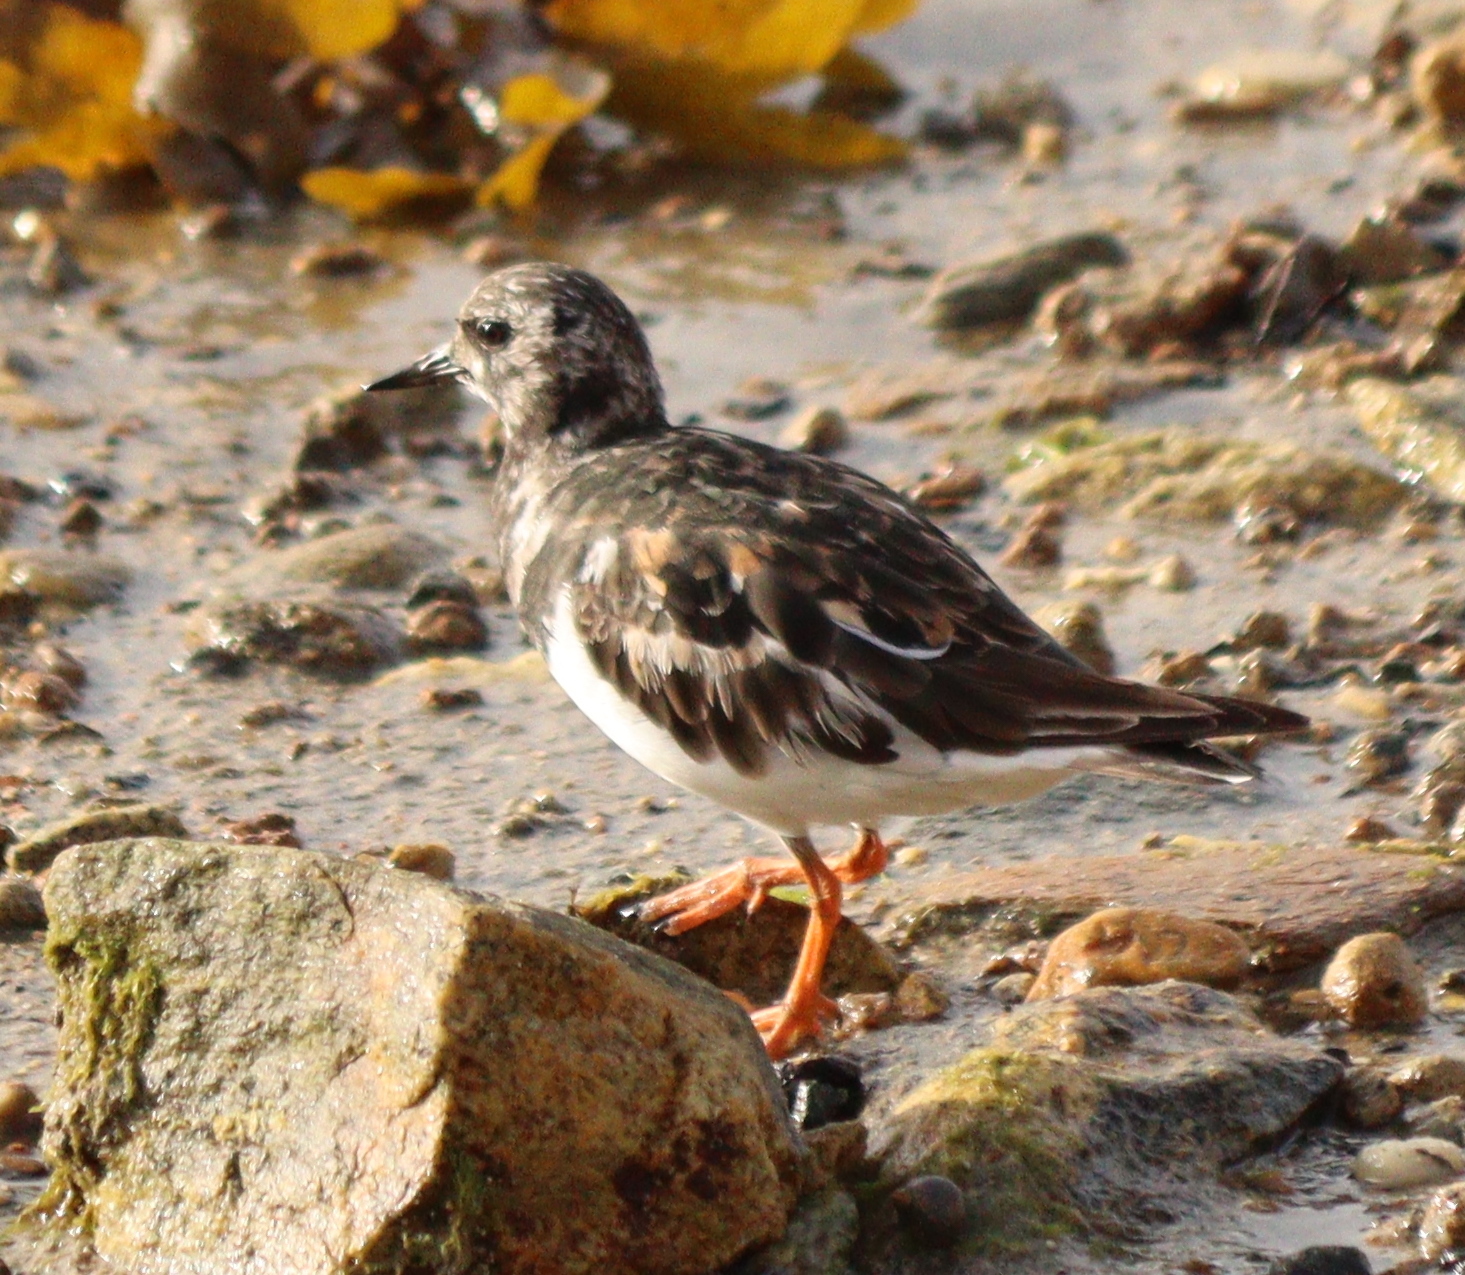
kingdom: Animalia
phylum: Chordata
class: Aves
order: Charadriiformes
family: Scolopacidae
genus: Arenaria
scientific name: Arenaria interpres
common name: Ruddy turnstone
